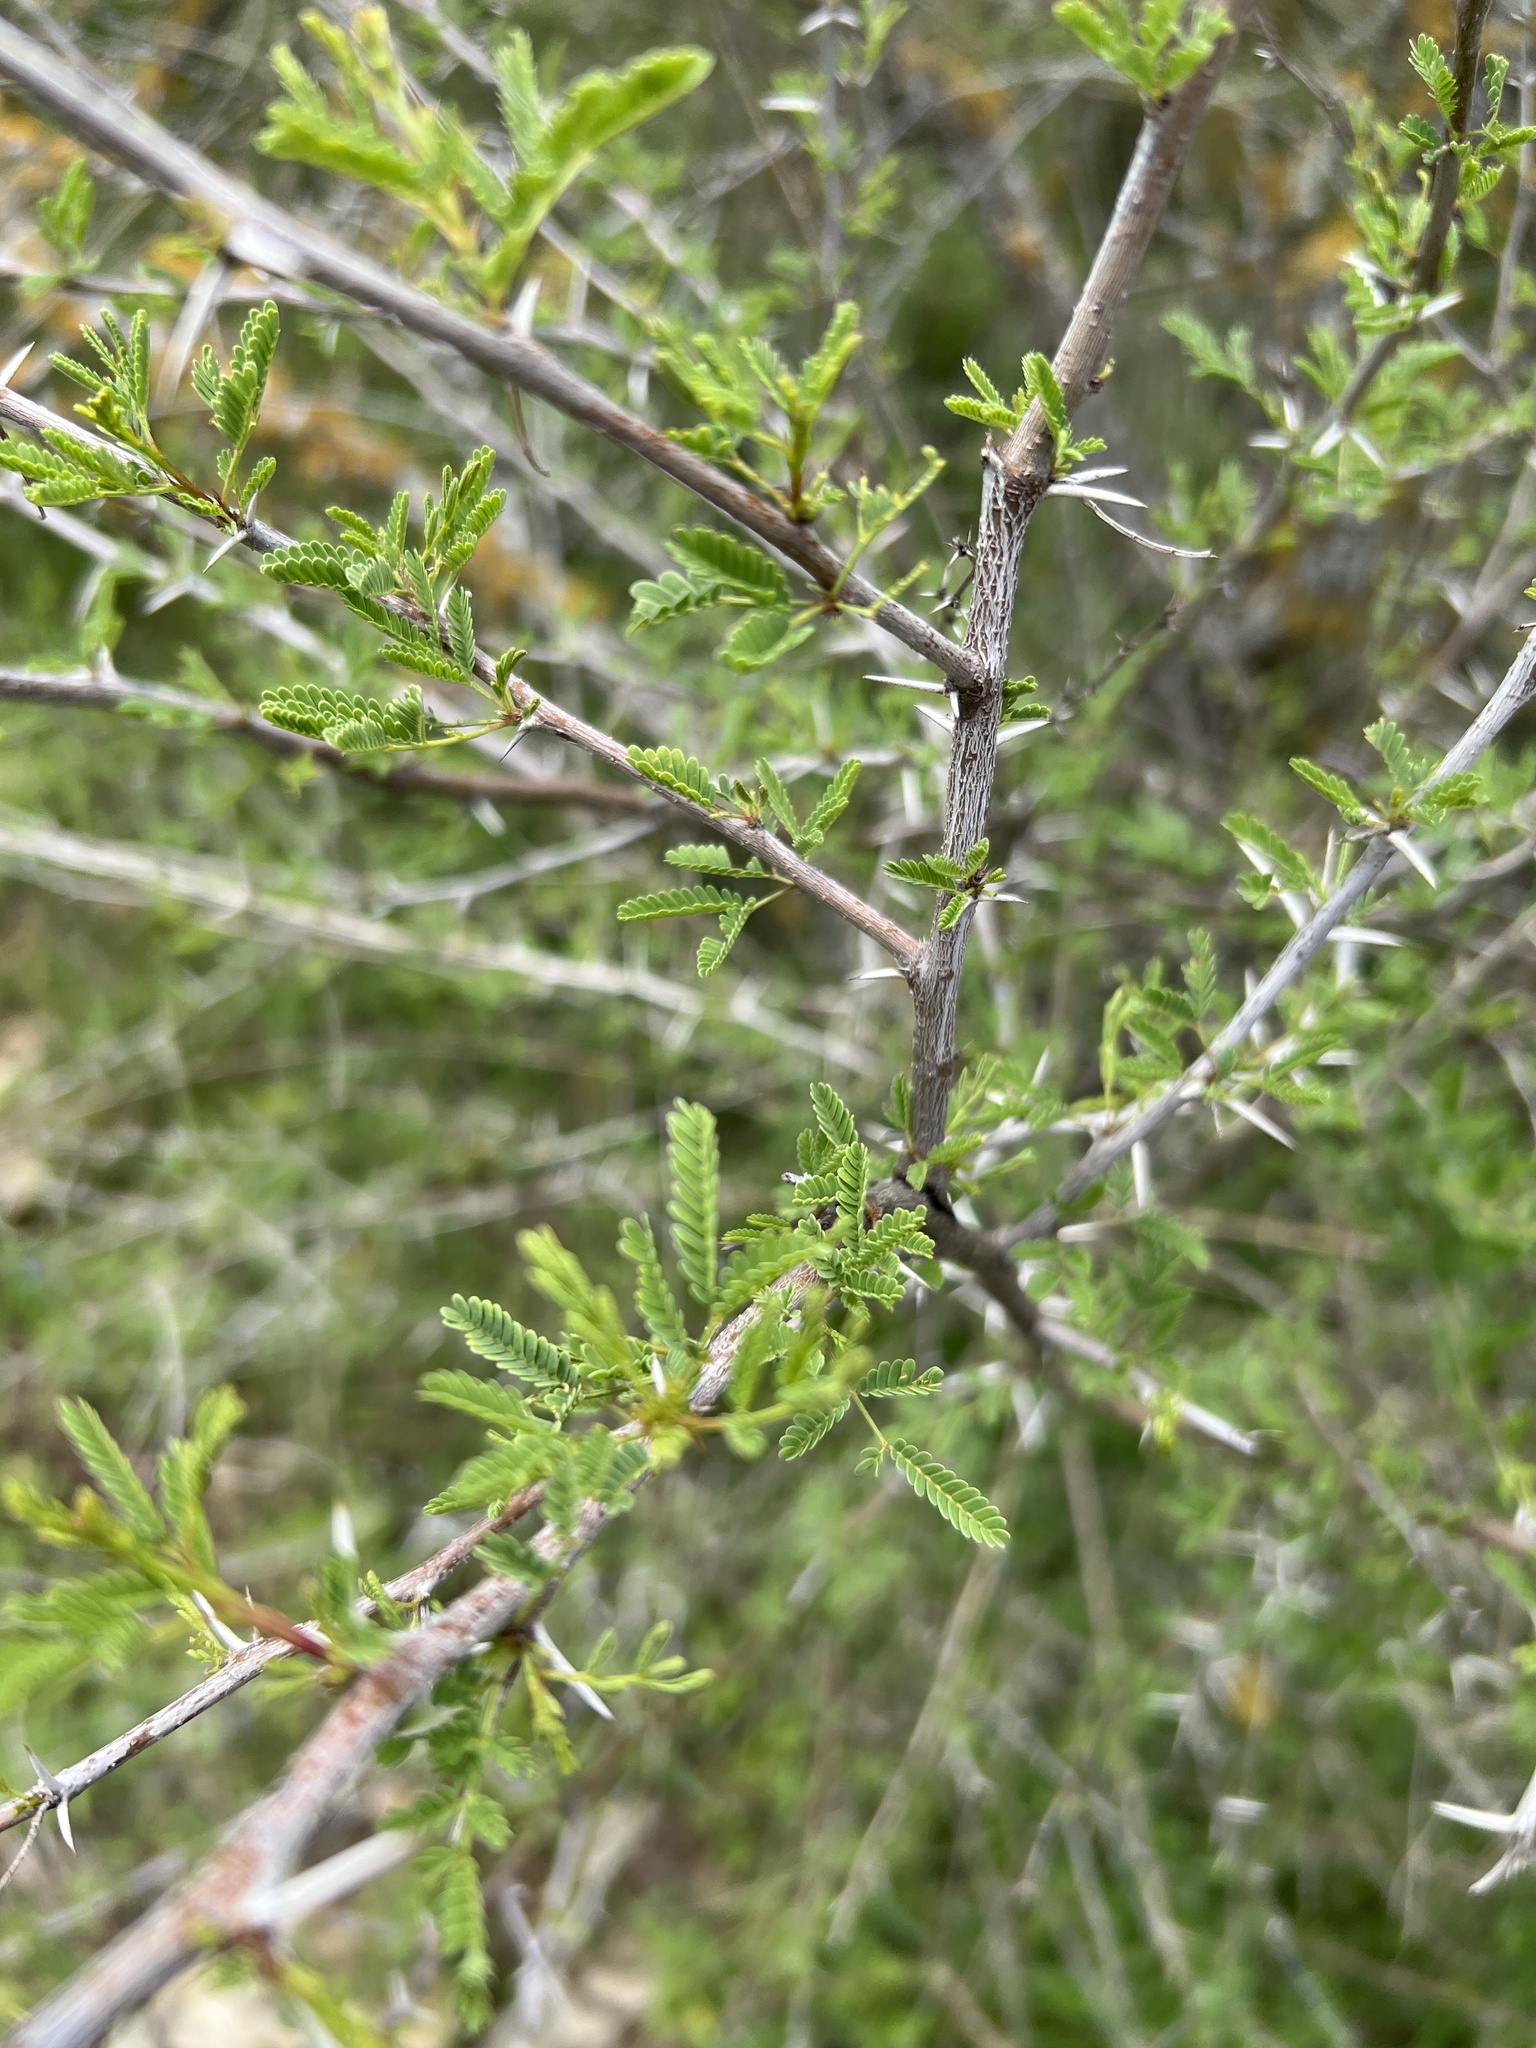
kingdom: Plantae
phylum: Tracheophyta
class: Magnoliopsida
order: Fabales
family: Fabaceae
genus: Vachellia
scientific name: Vachellia farnesiana
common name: Sweet acacia
